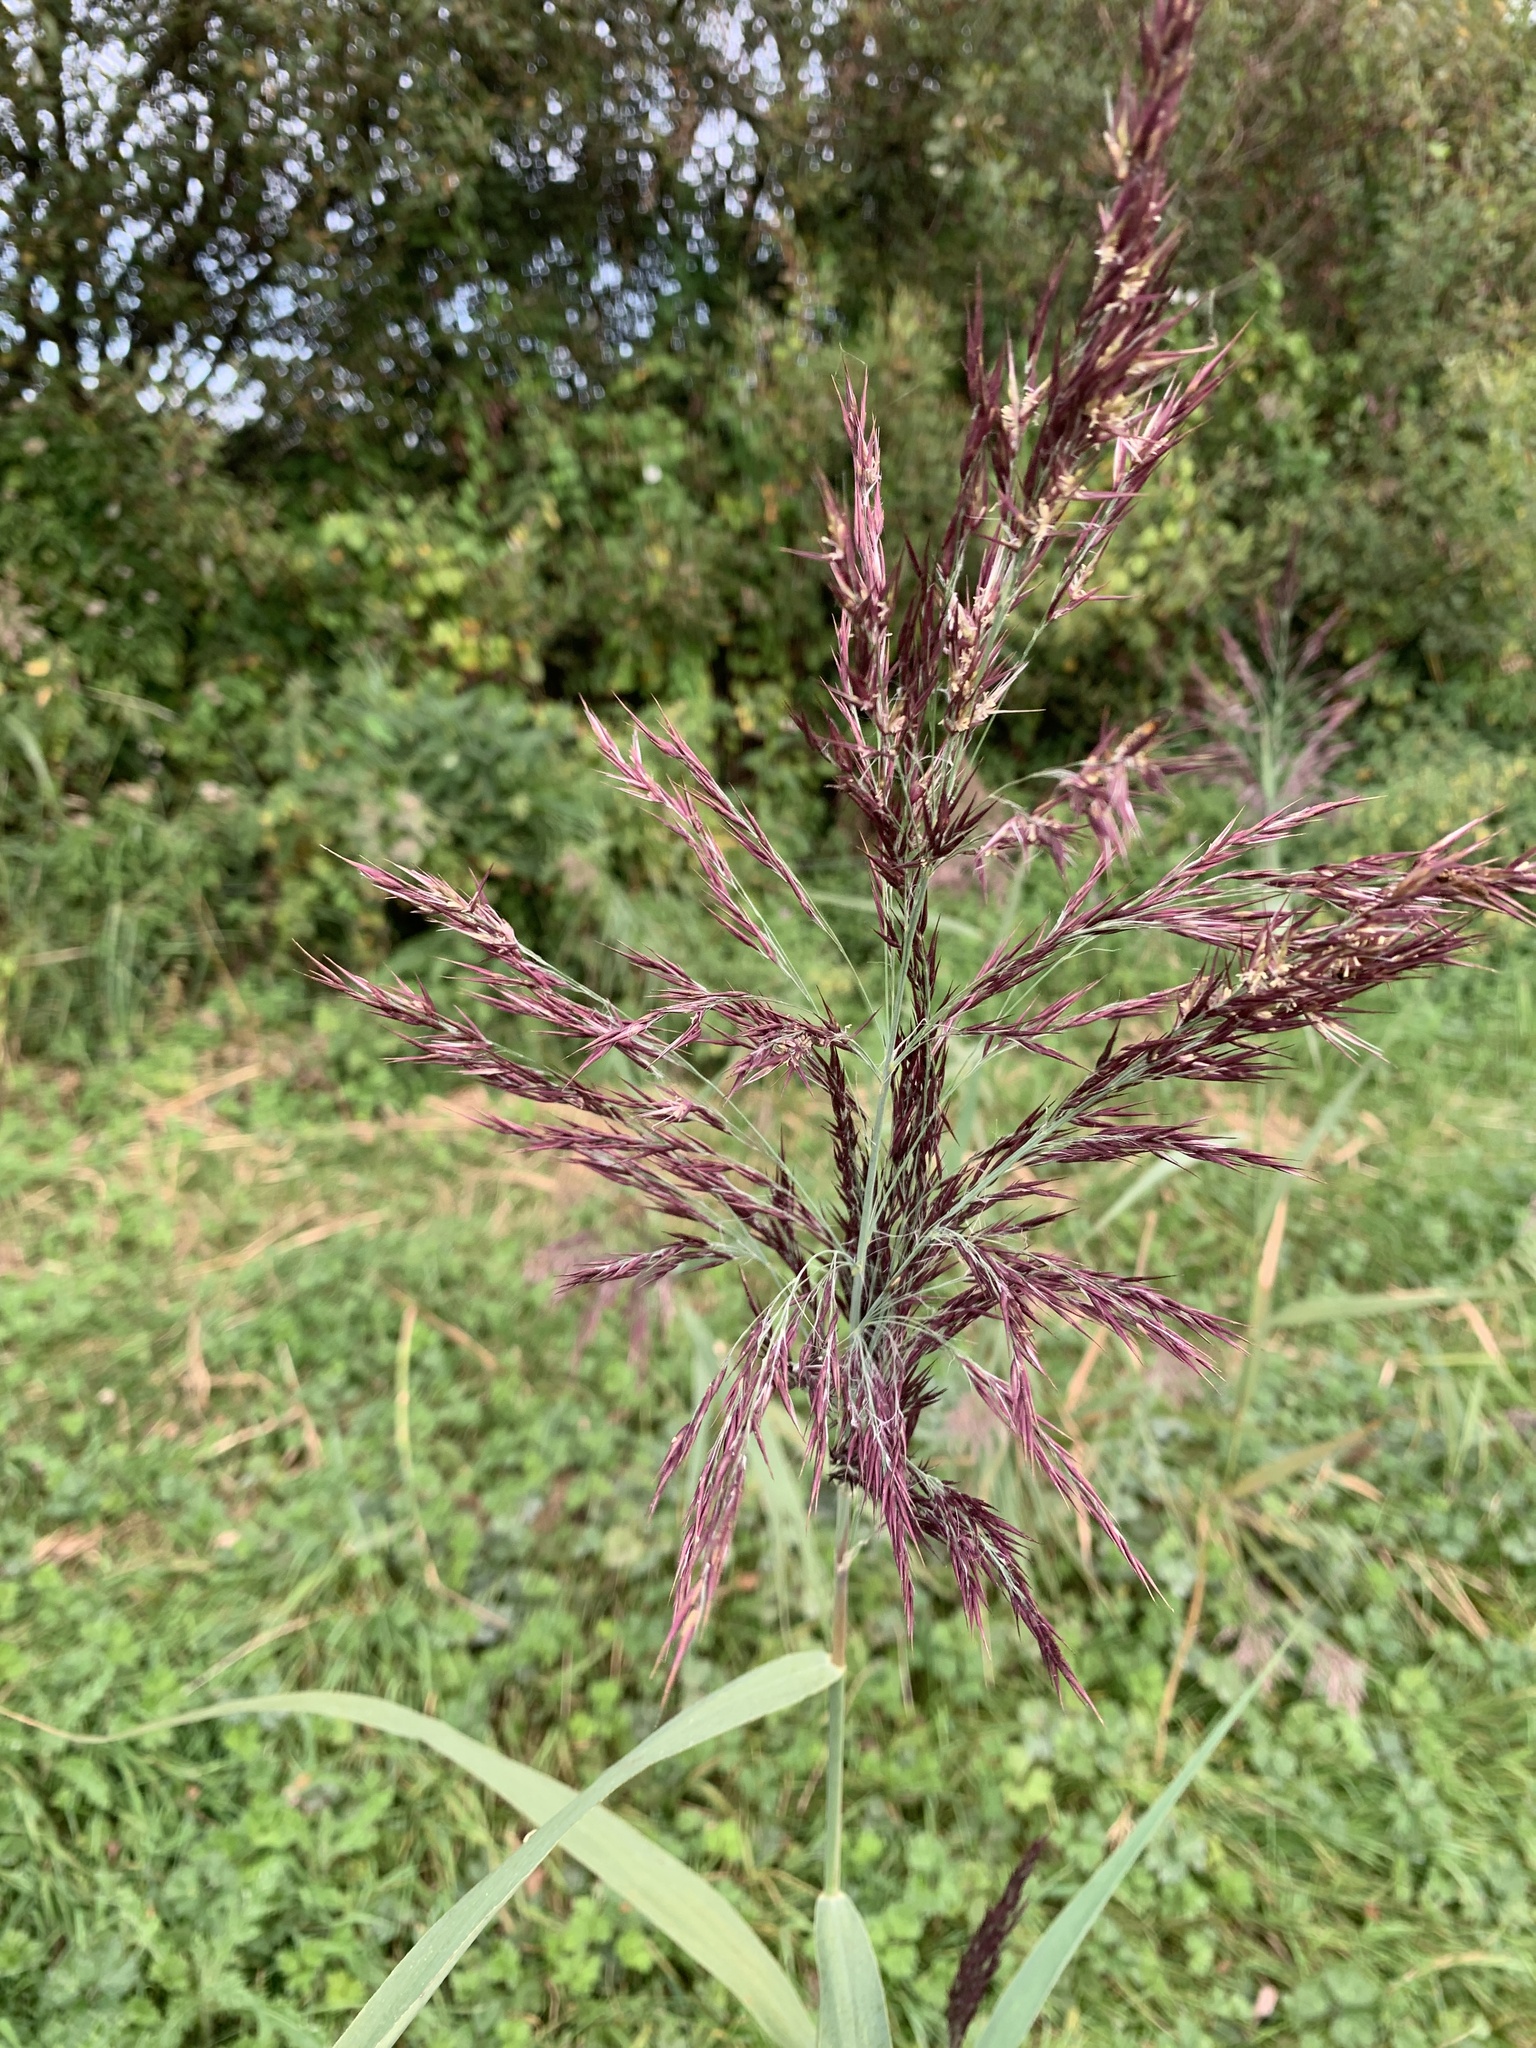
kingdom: Plantae
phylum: Tracheophyta
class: Liliopsida
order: Poales
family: Poaceae
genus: Phragmites
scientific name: Phragmites australis
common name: Common reed
